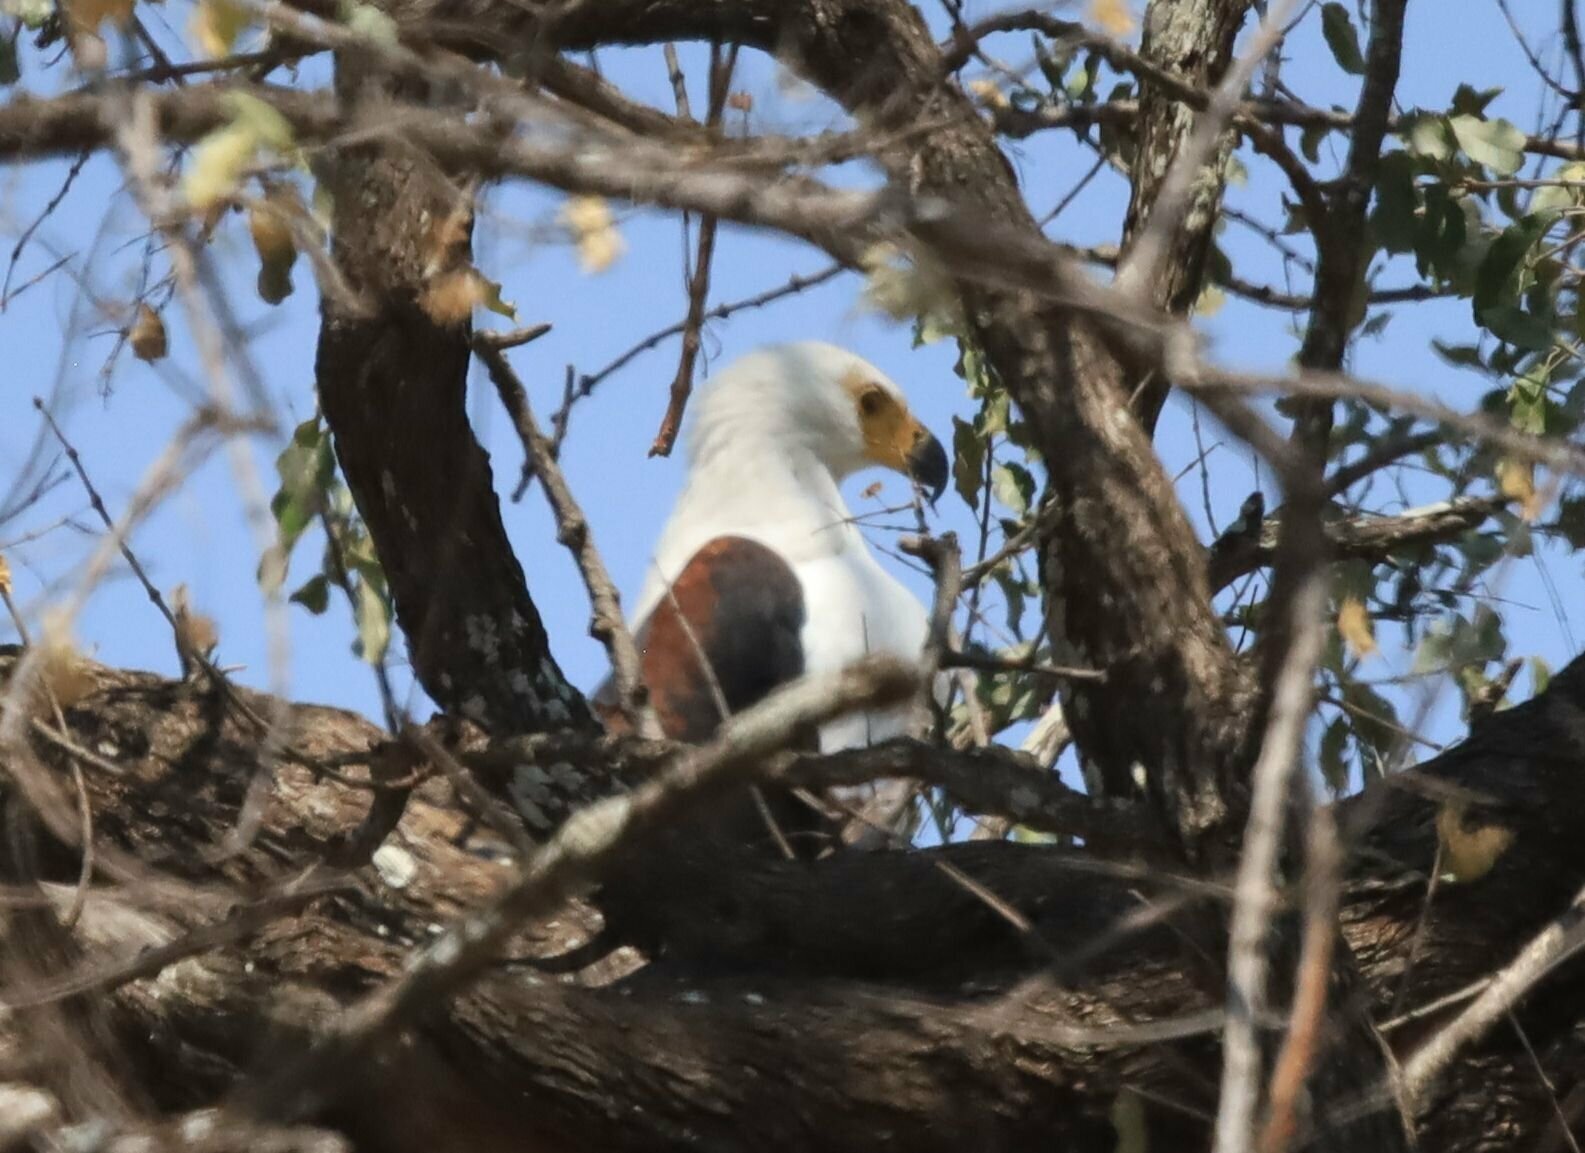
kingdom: Animalia
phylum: Chordata
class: Aves
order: Accipitriformes
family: Accipitridae
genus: Haliaeetus
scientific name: Haliaeetus vocifer
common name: African fish eagle
